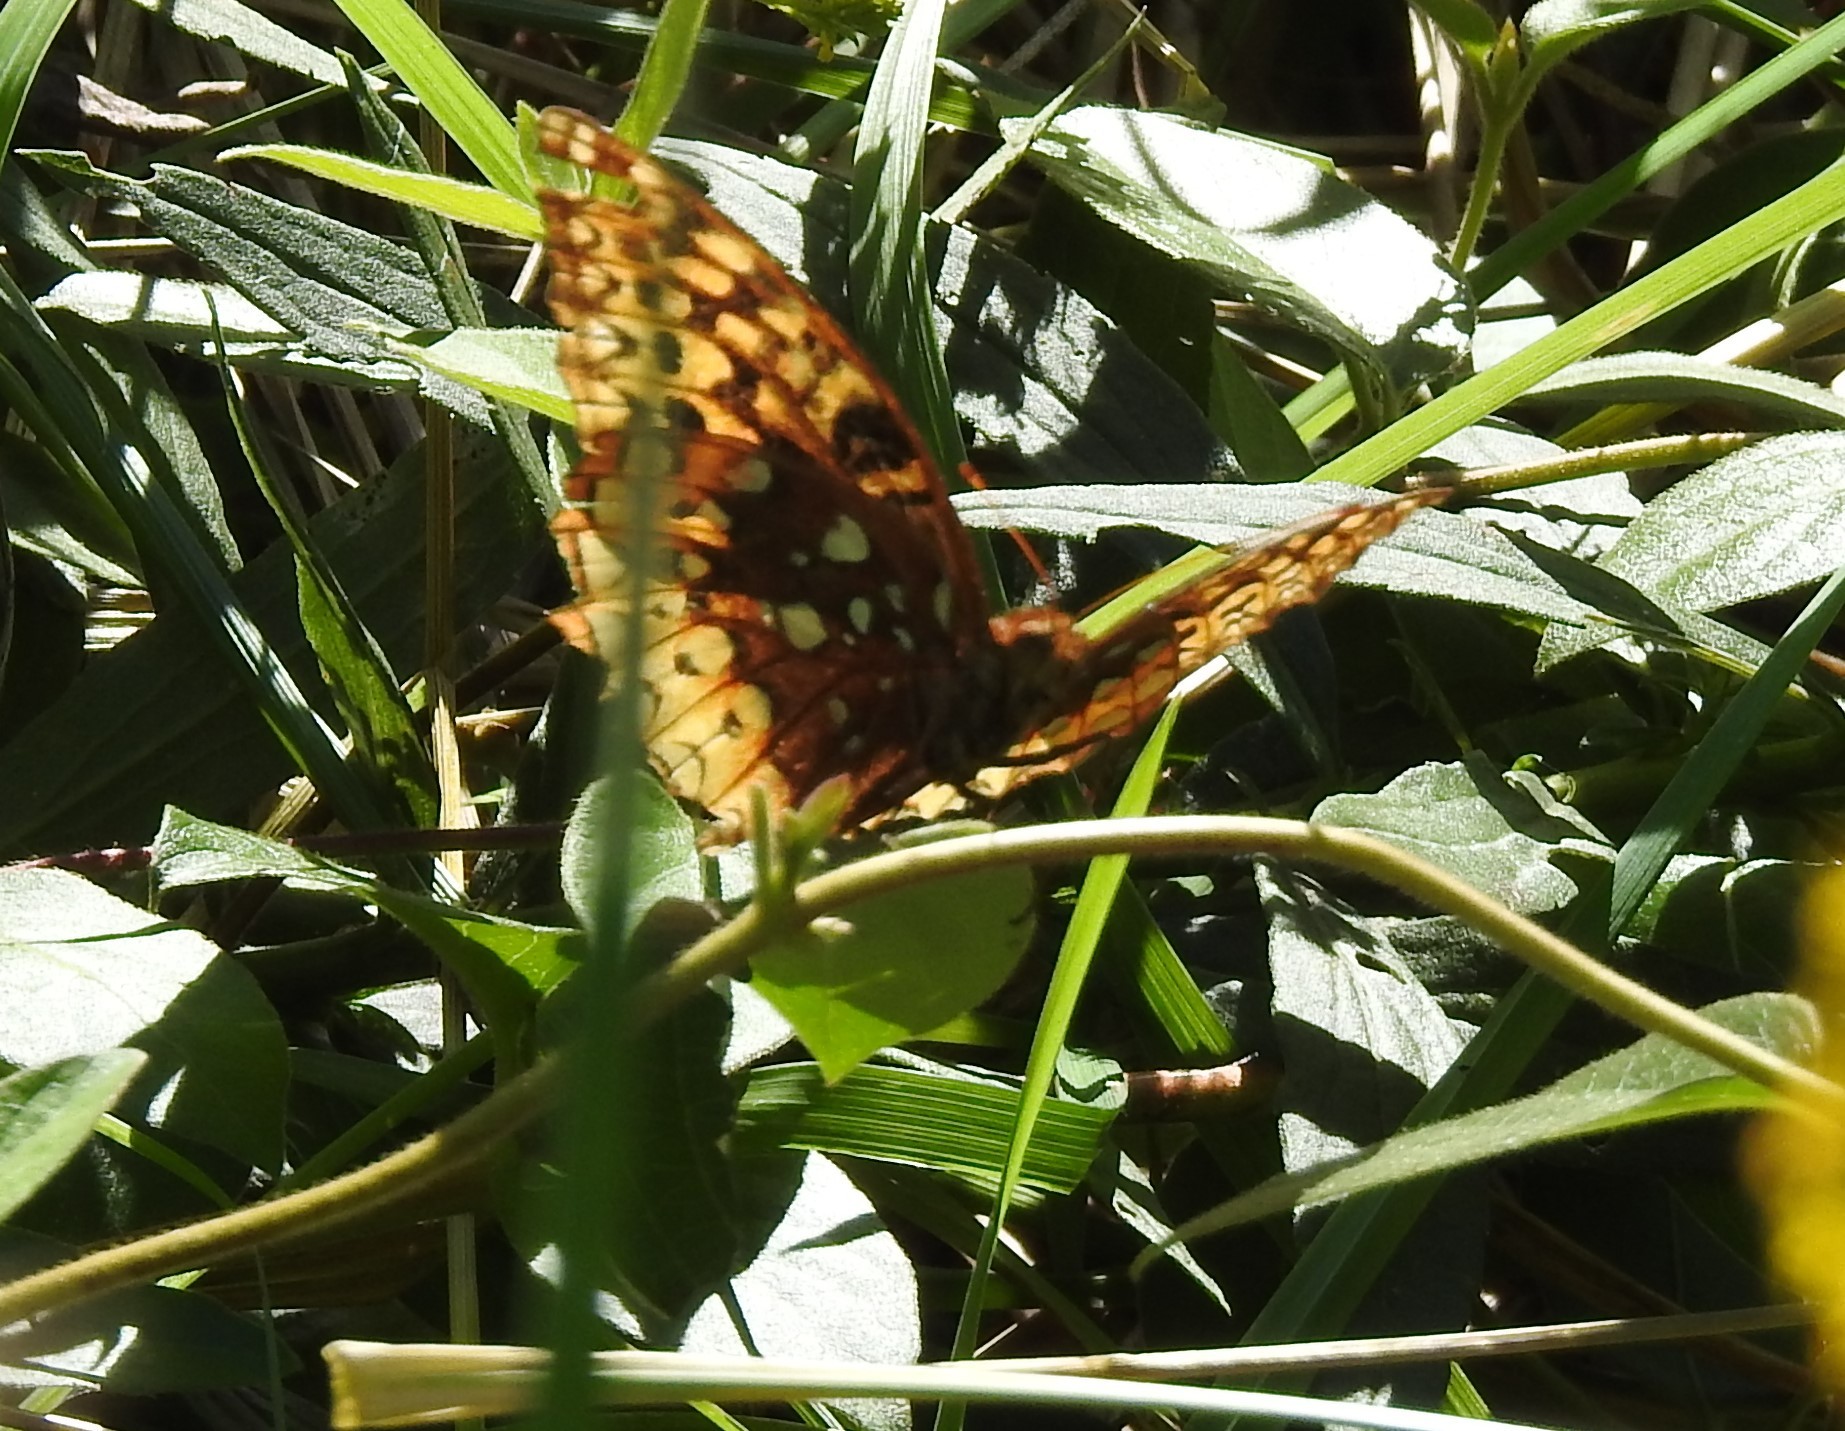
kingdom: Animalia
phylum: Arthropoda
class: Insecta
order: Lepidoptera
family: Nymphalidae
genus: Speyeria
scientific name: Speyeria cybele
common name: Great spangled fritillary
